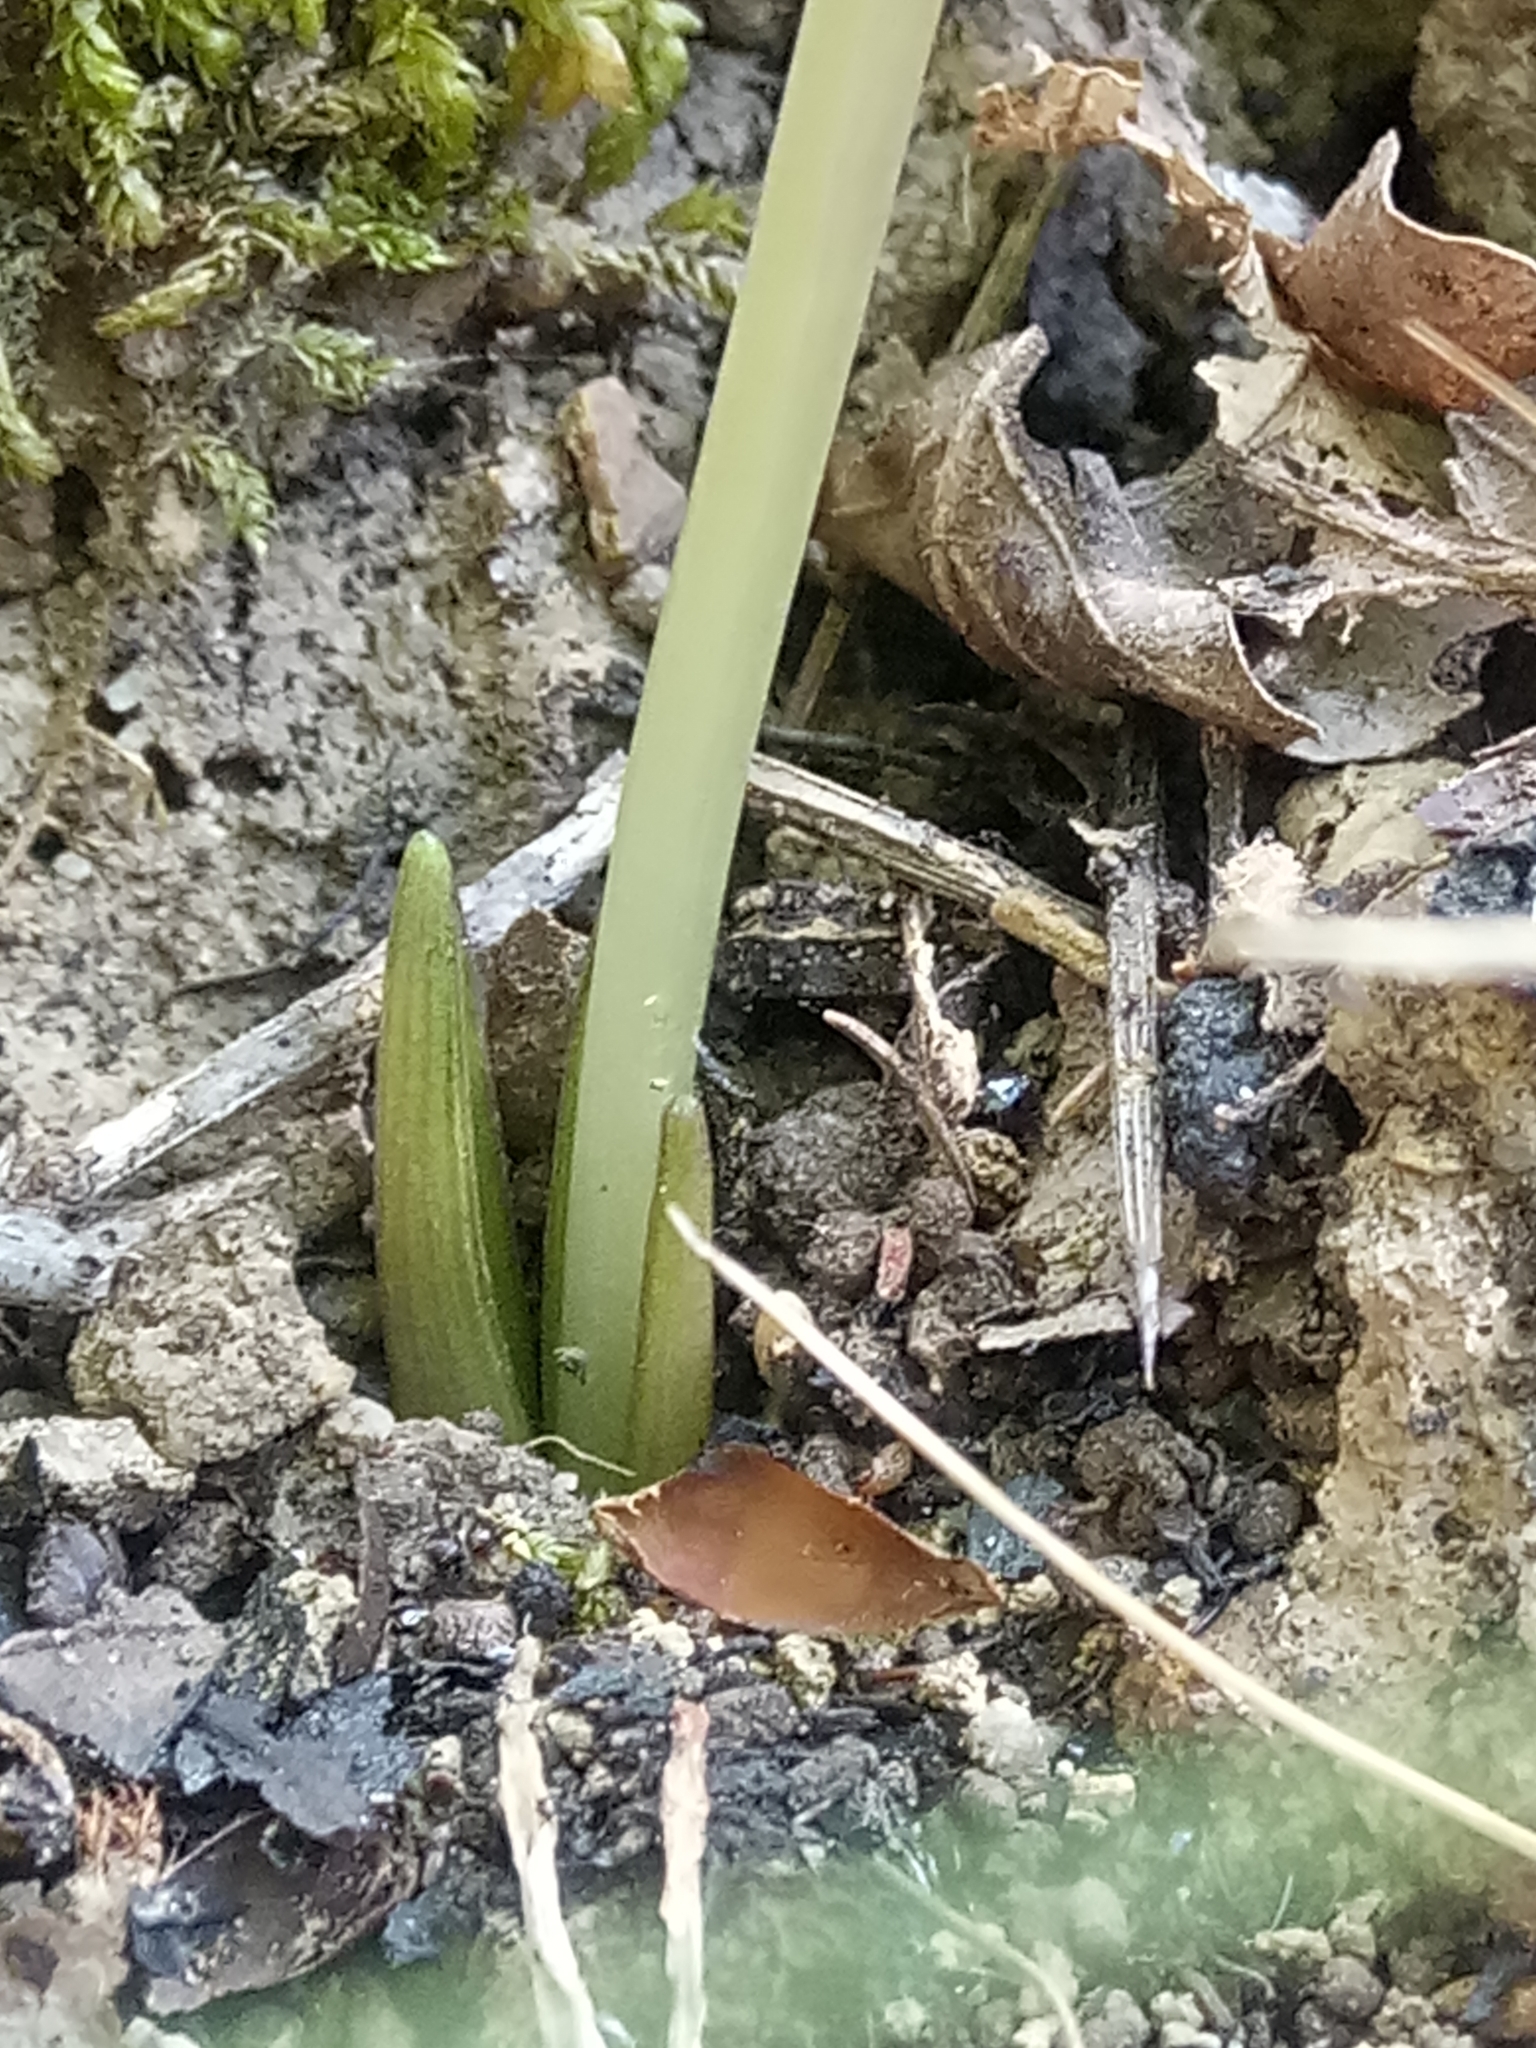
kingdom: Plantae
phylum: Tracheophyta
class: Liliopsida
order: Asparagales
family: Asparagaceae
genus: Barnardia
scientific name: Barnardia numidica
